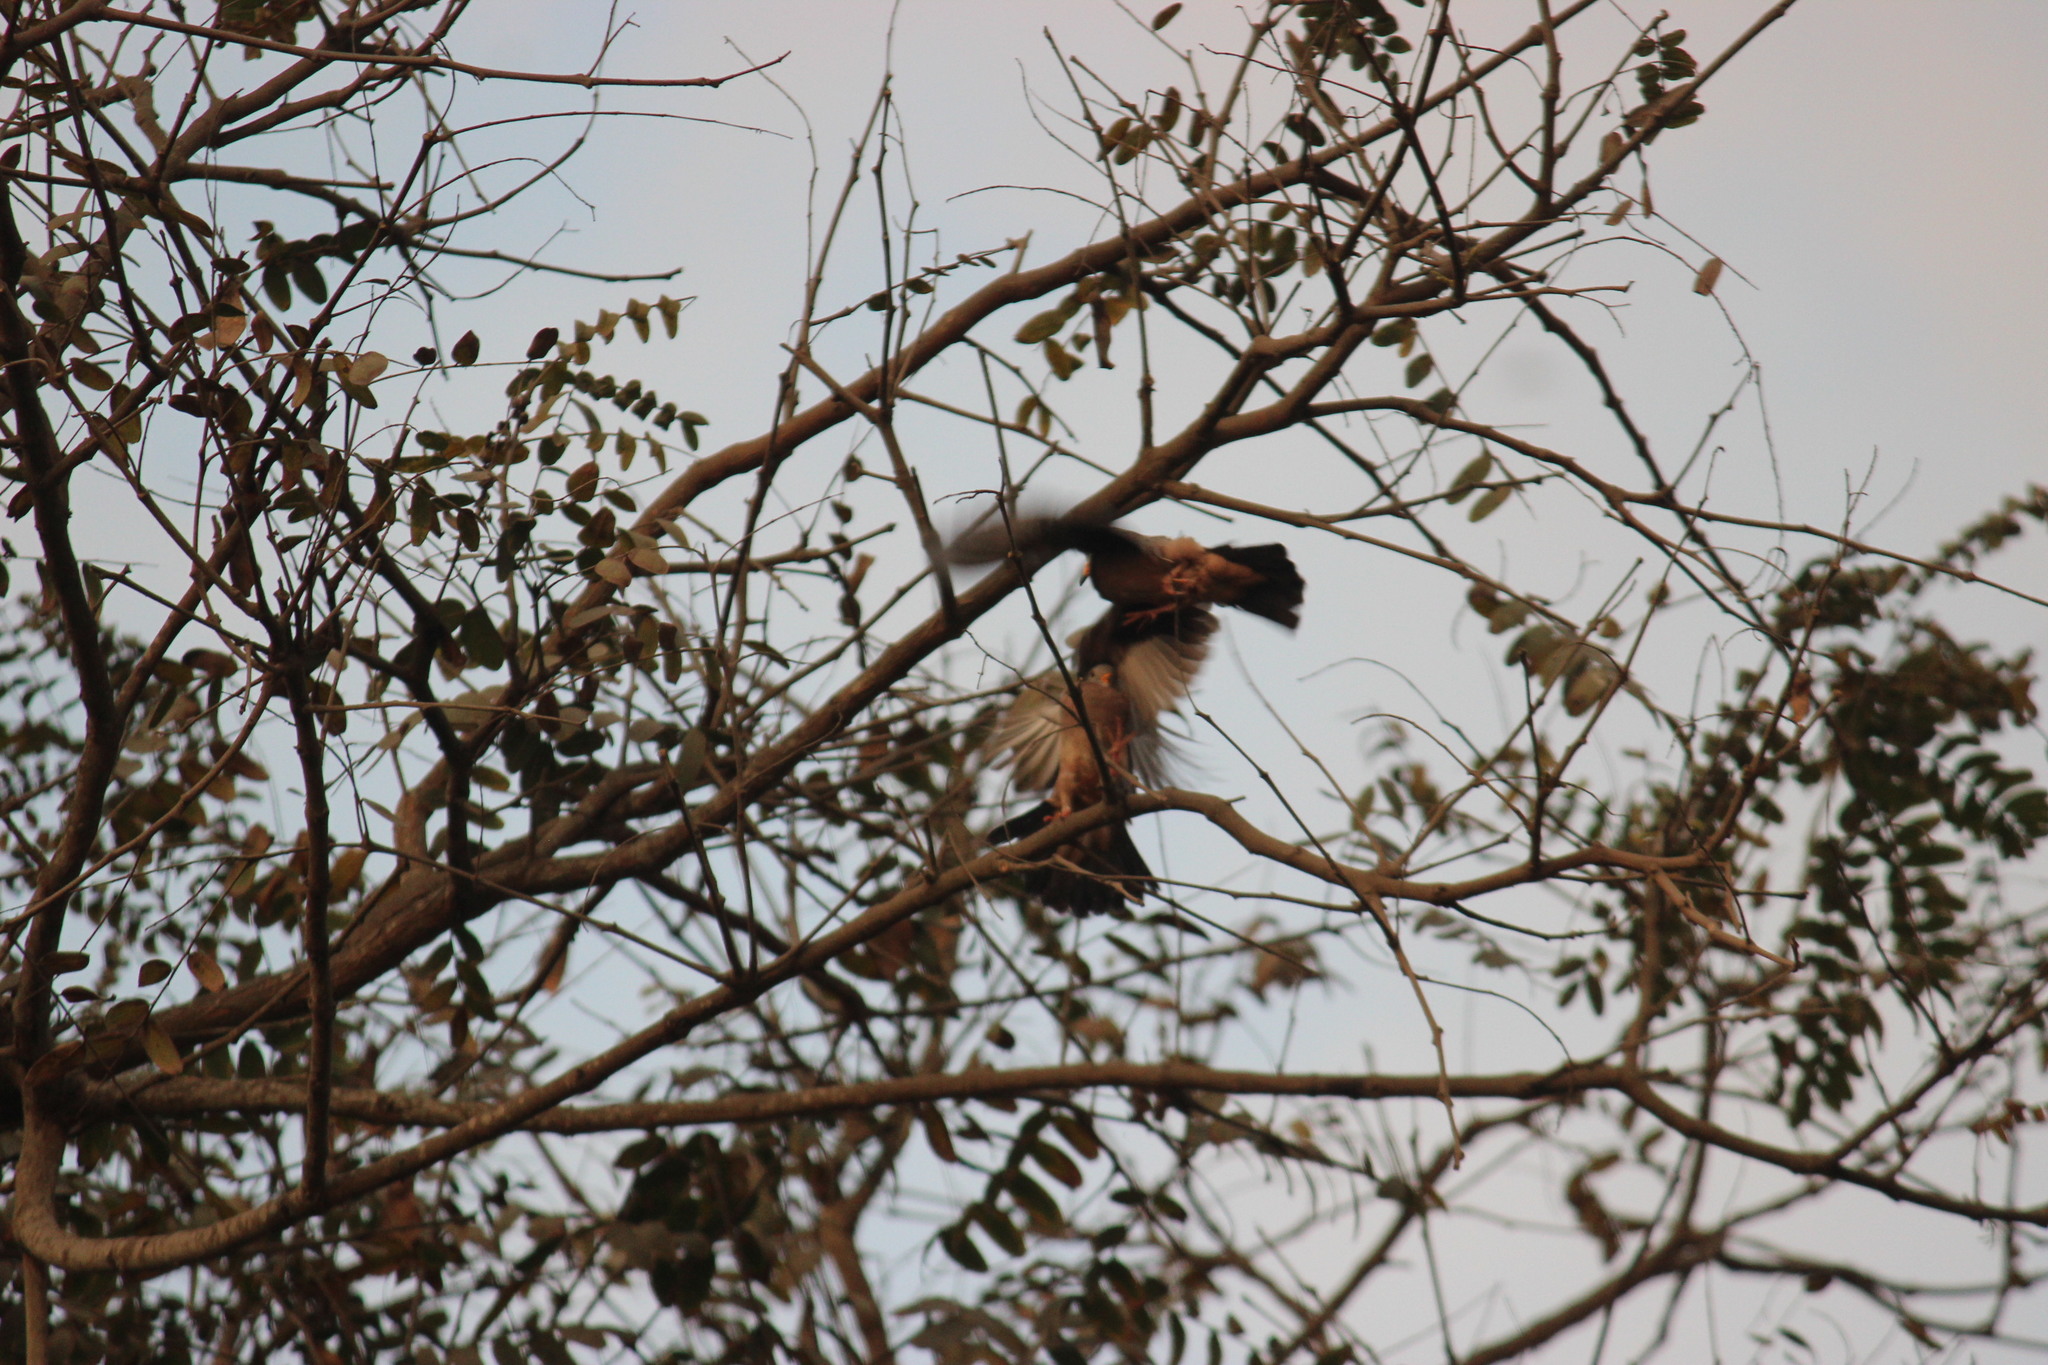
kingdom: Animalia
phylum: Chordata
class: Aves
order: Columbiformes
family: Columbidae
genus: Columbina
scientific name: Columbina cruziana
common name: Croaking ground dove
